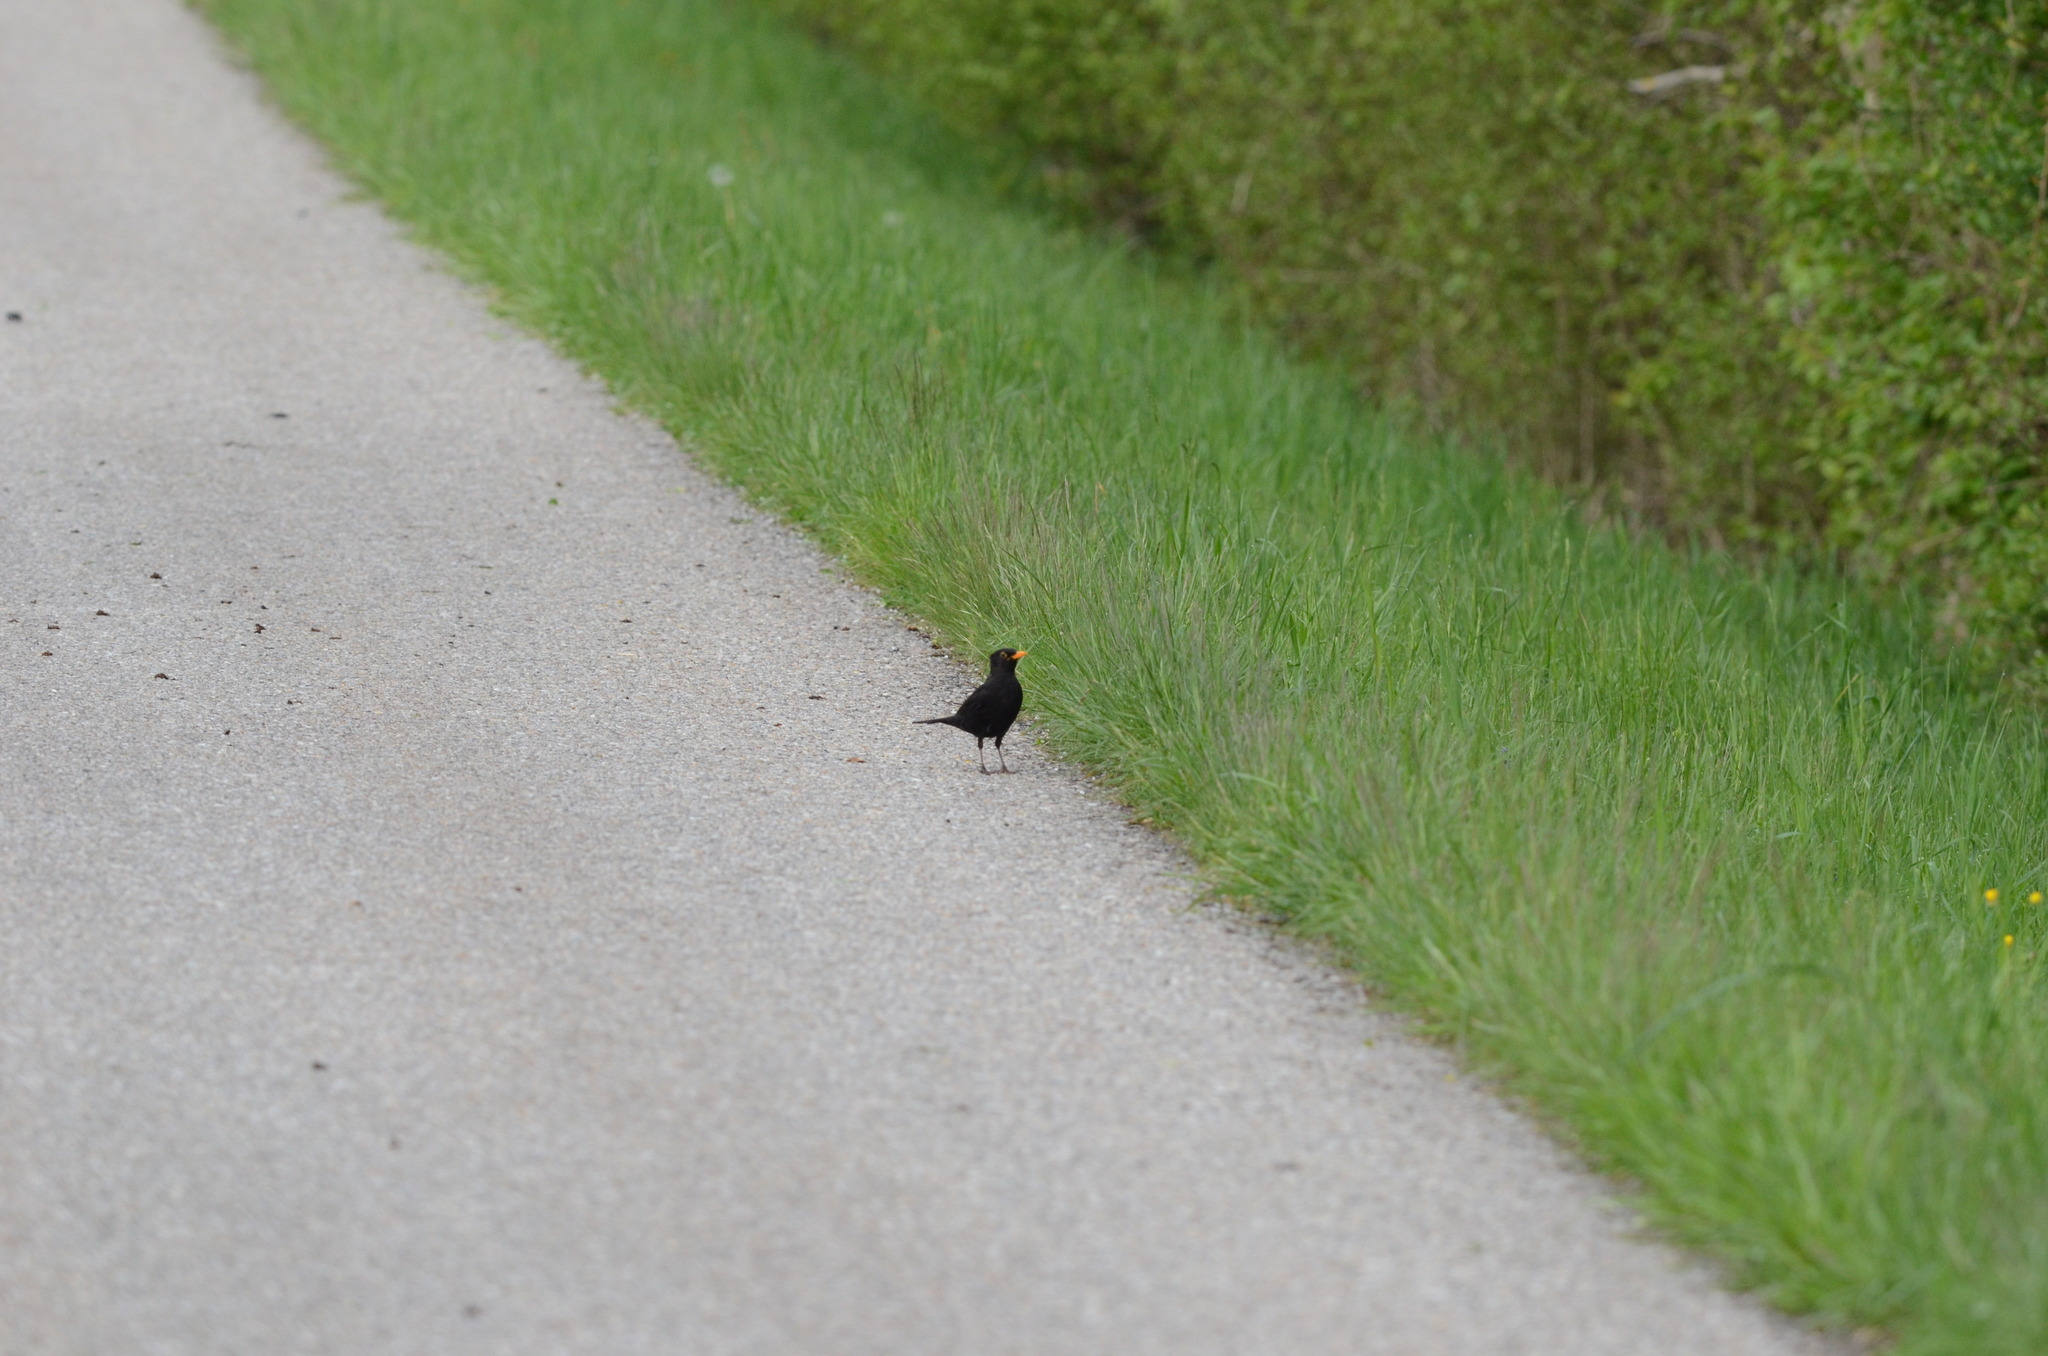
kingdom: Animalia
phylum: Chordata
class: Aves
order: Passeriformes
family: Turdidae
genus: Turdus
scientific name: Turdus merula
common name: Common blackbird
